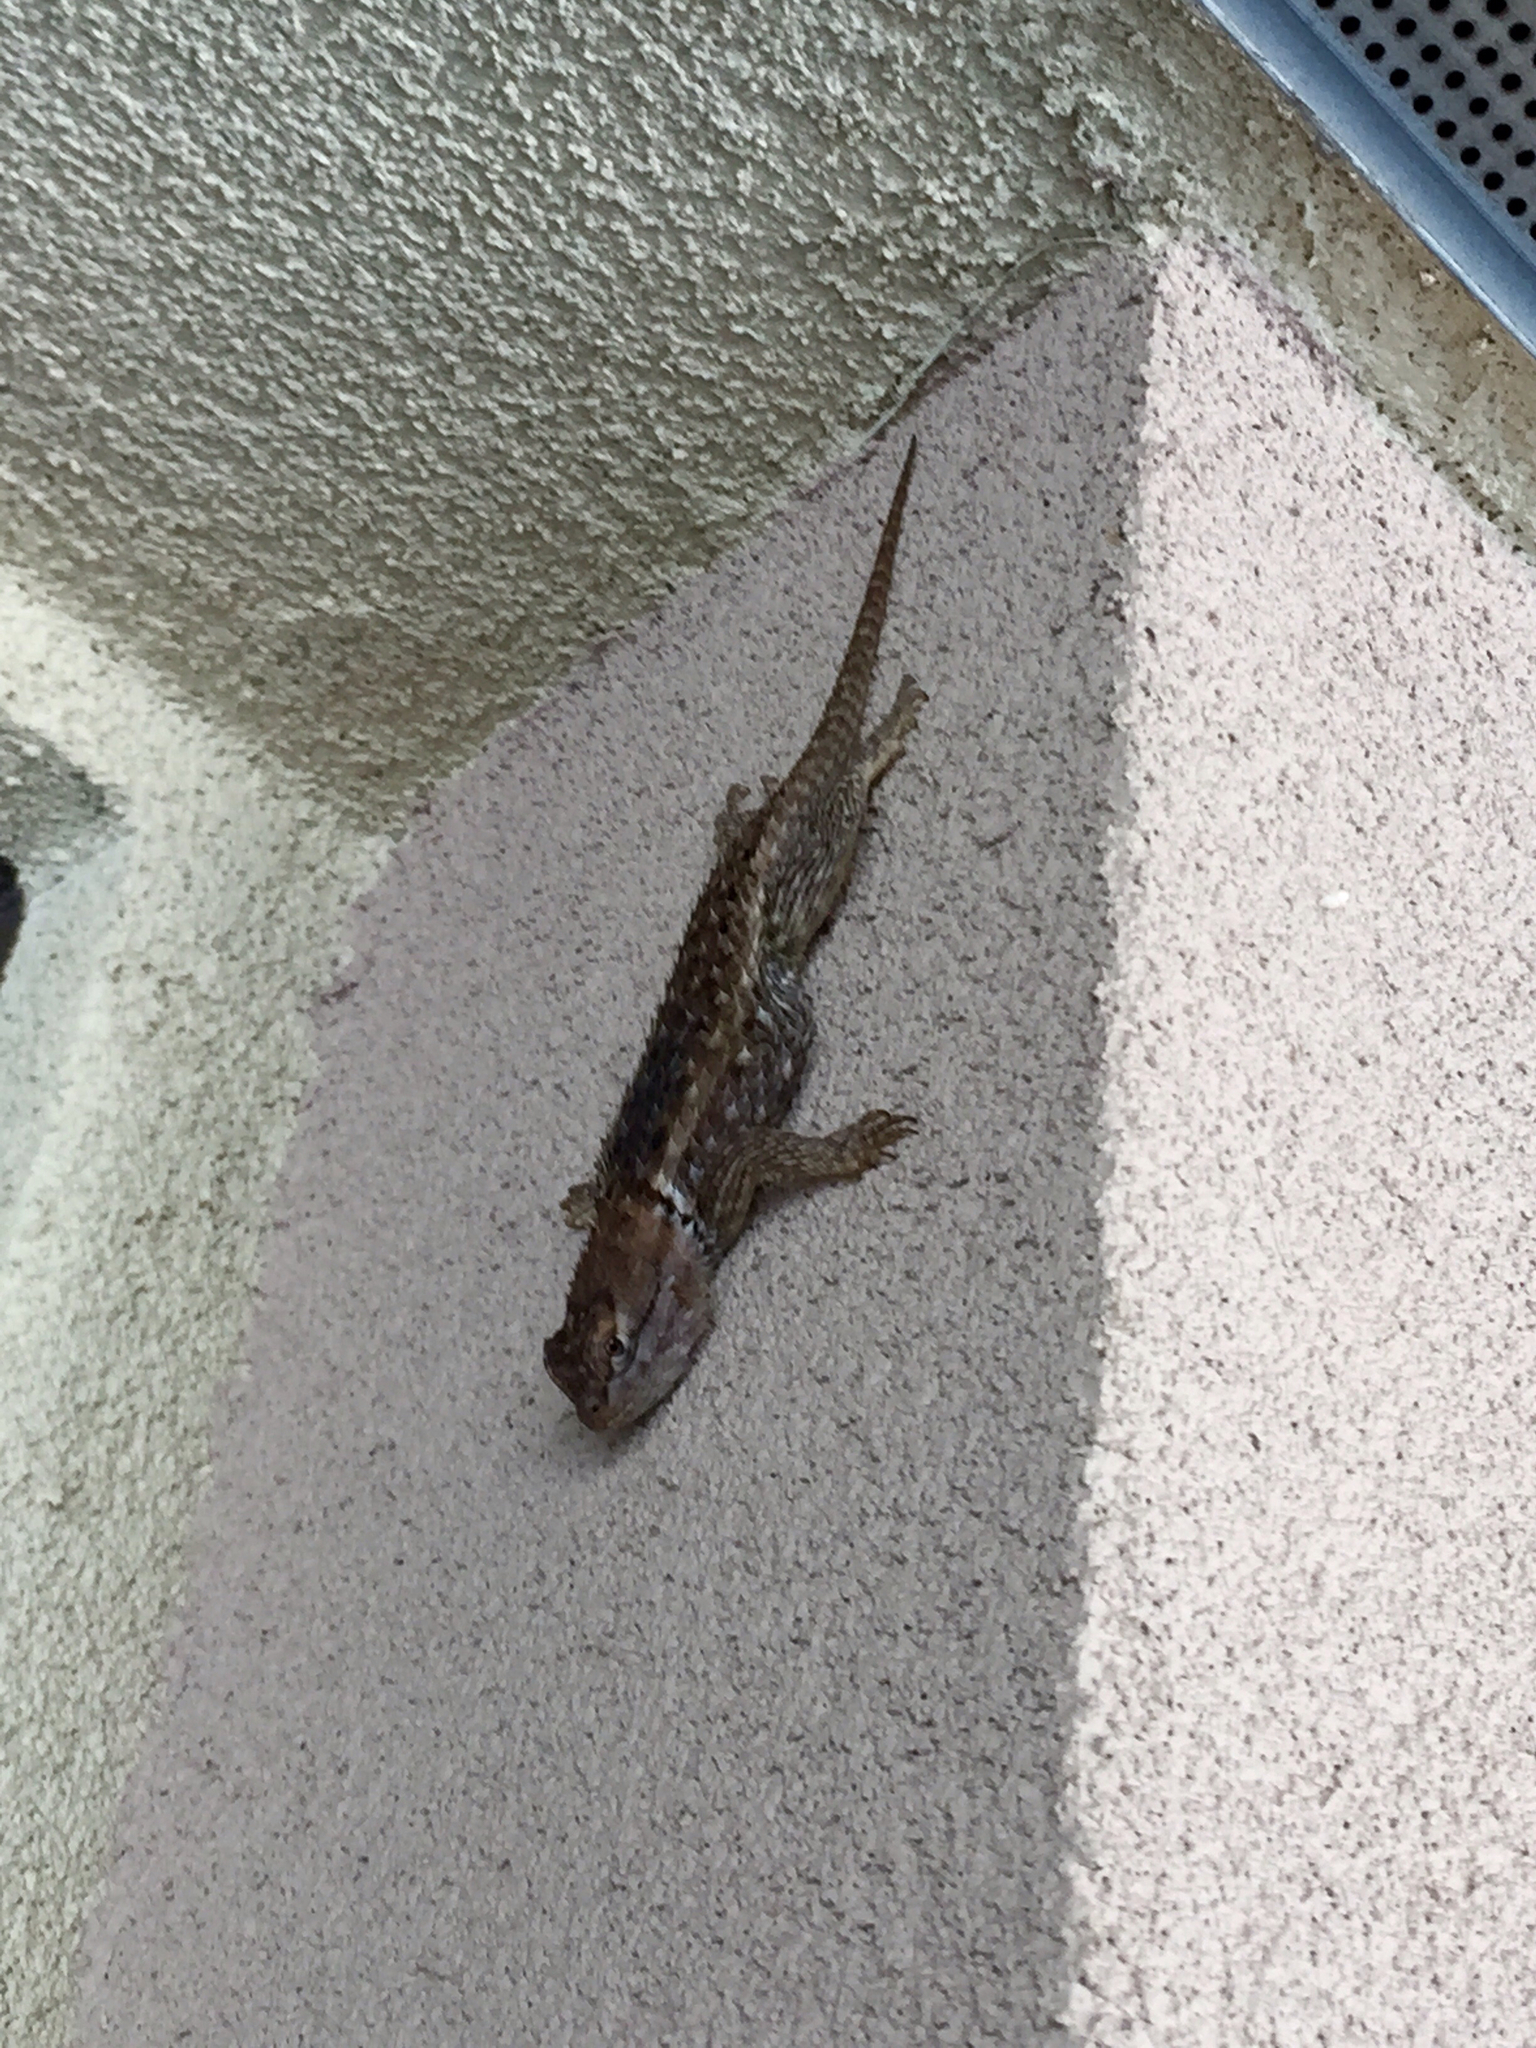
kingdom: Animalia
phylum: Chordata
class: Squamata
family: Phrynosomatidae
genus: Sceloporus
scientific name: Sceloporus magister
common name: Desert spiny lizard
